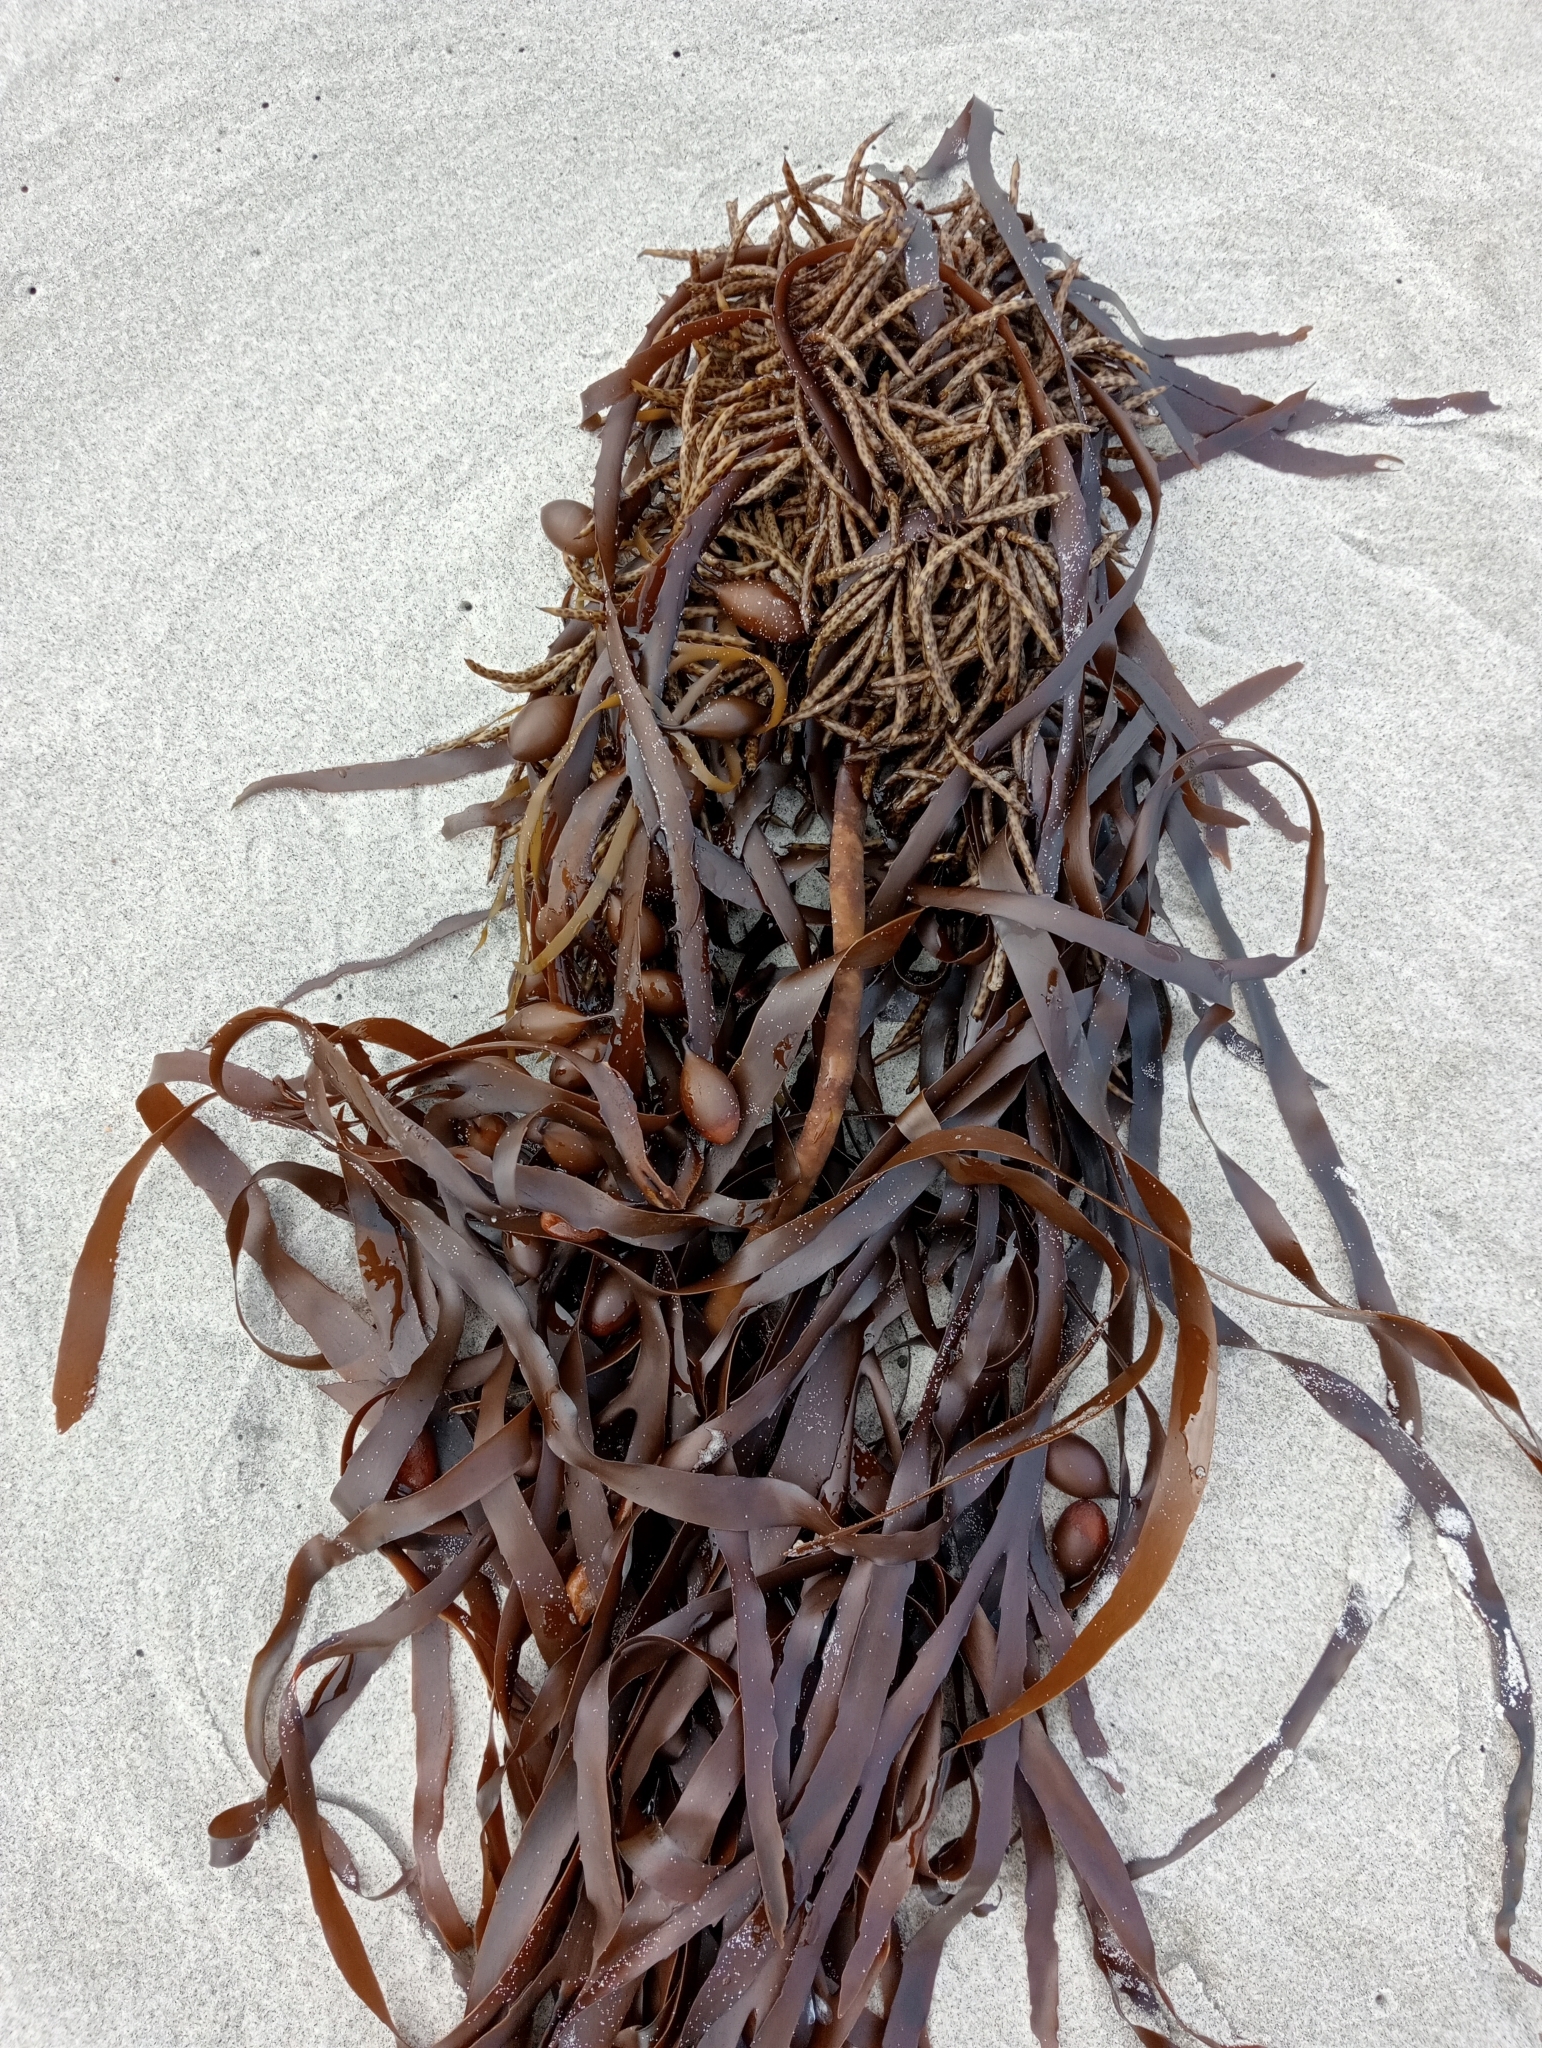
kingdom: Chromista
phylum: Ochrophyta
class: Phaeophyceae
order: Fucales
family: Seirococcaceae
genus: Marginariella
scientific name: Marginariella boryana
